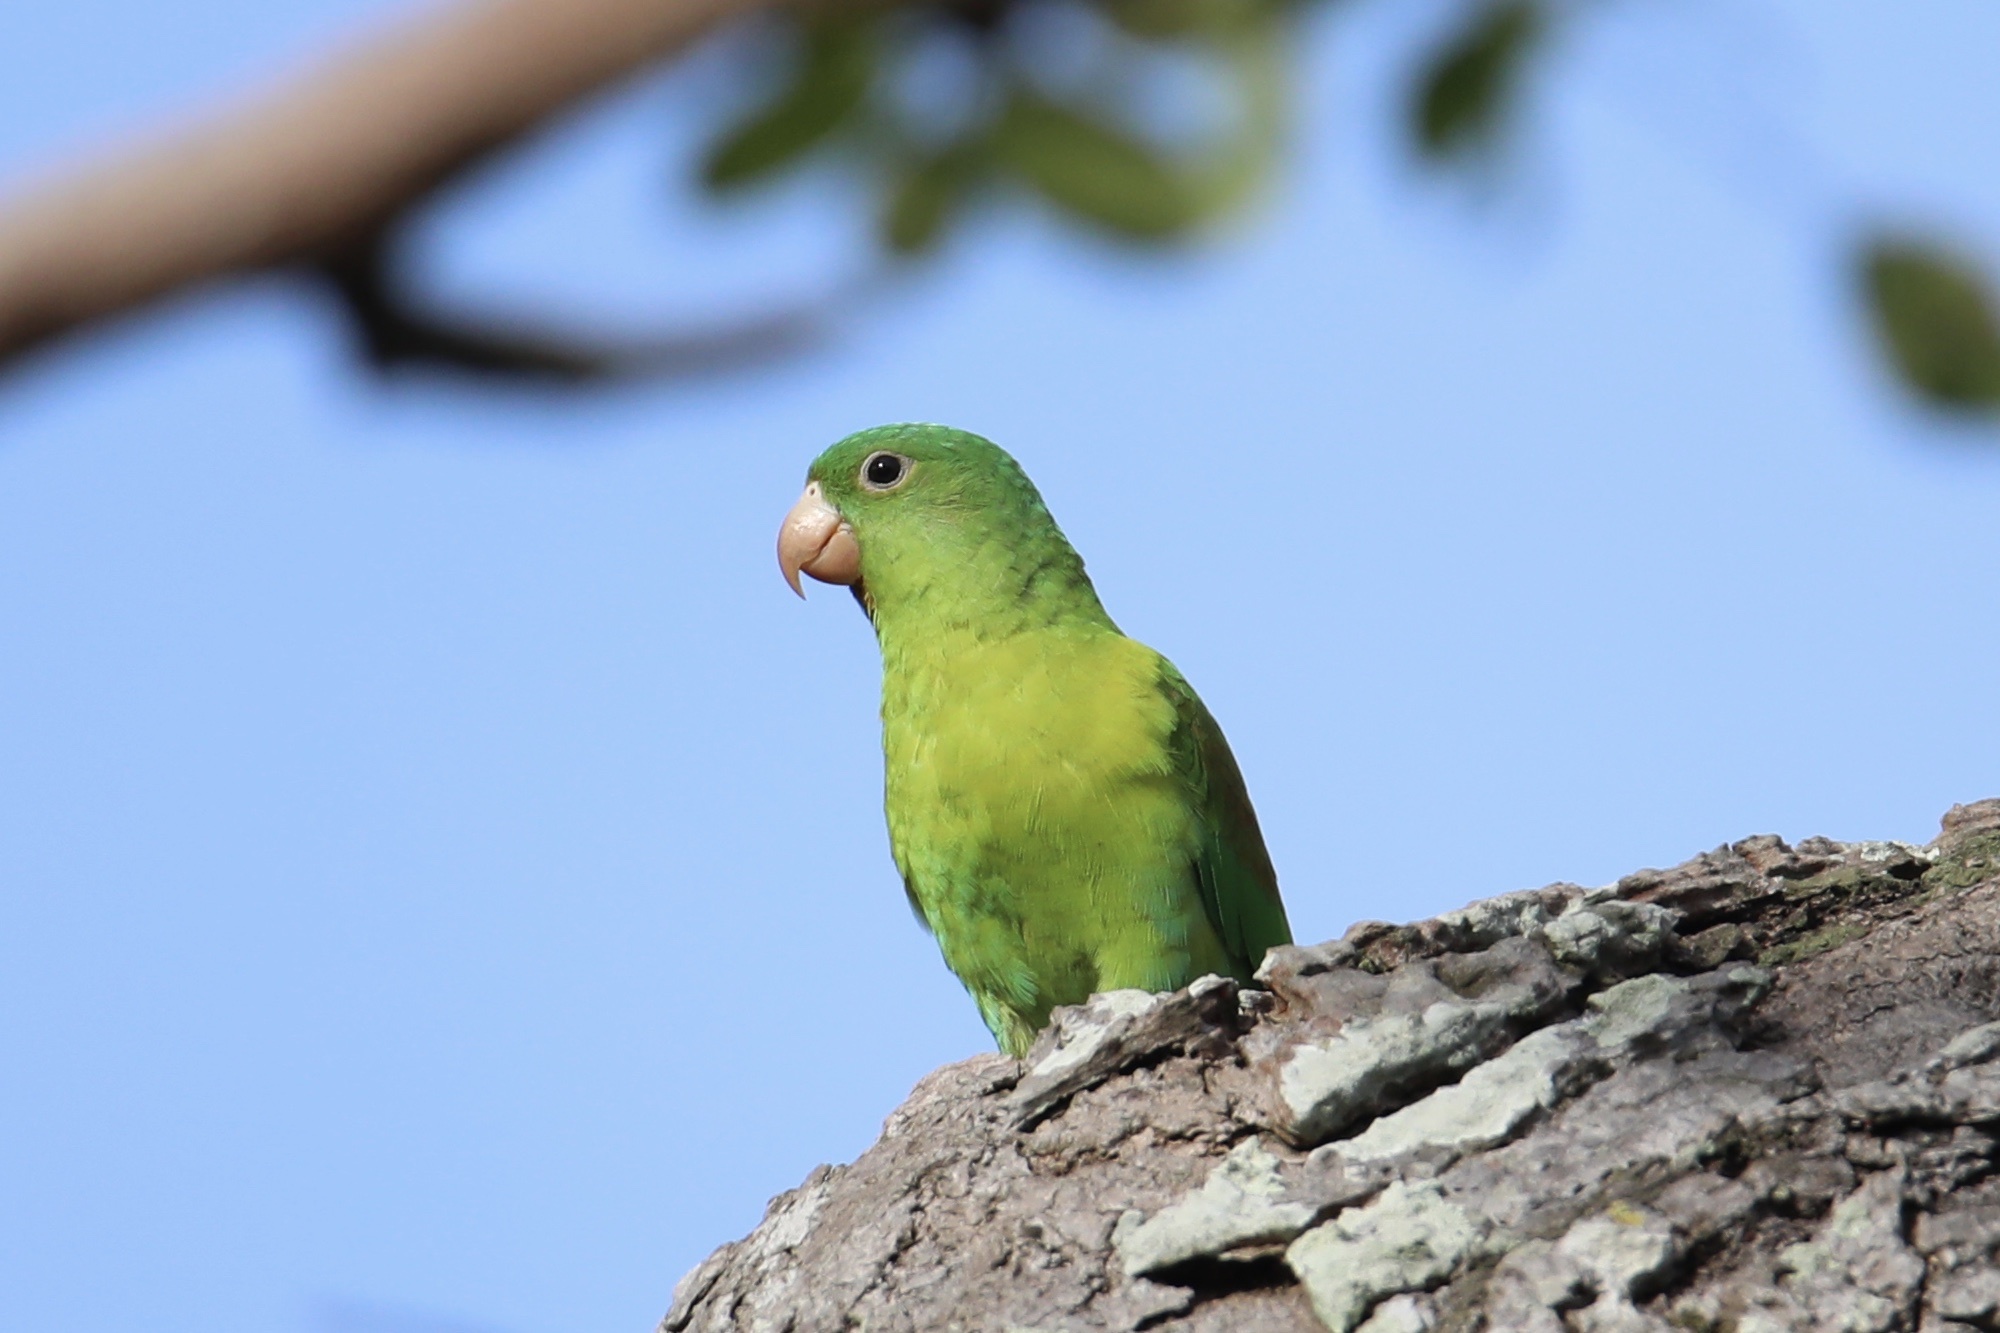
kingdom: Animalia
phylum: Chordata
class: Aves
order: Psittaciformes
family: Psittacidae
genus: Brotogeris
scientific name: Brotogeris jugularis
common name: Orange-chinned parakeet
